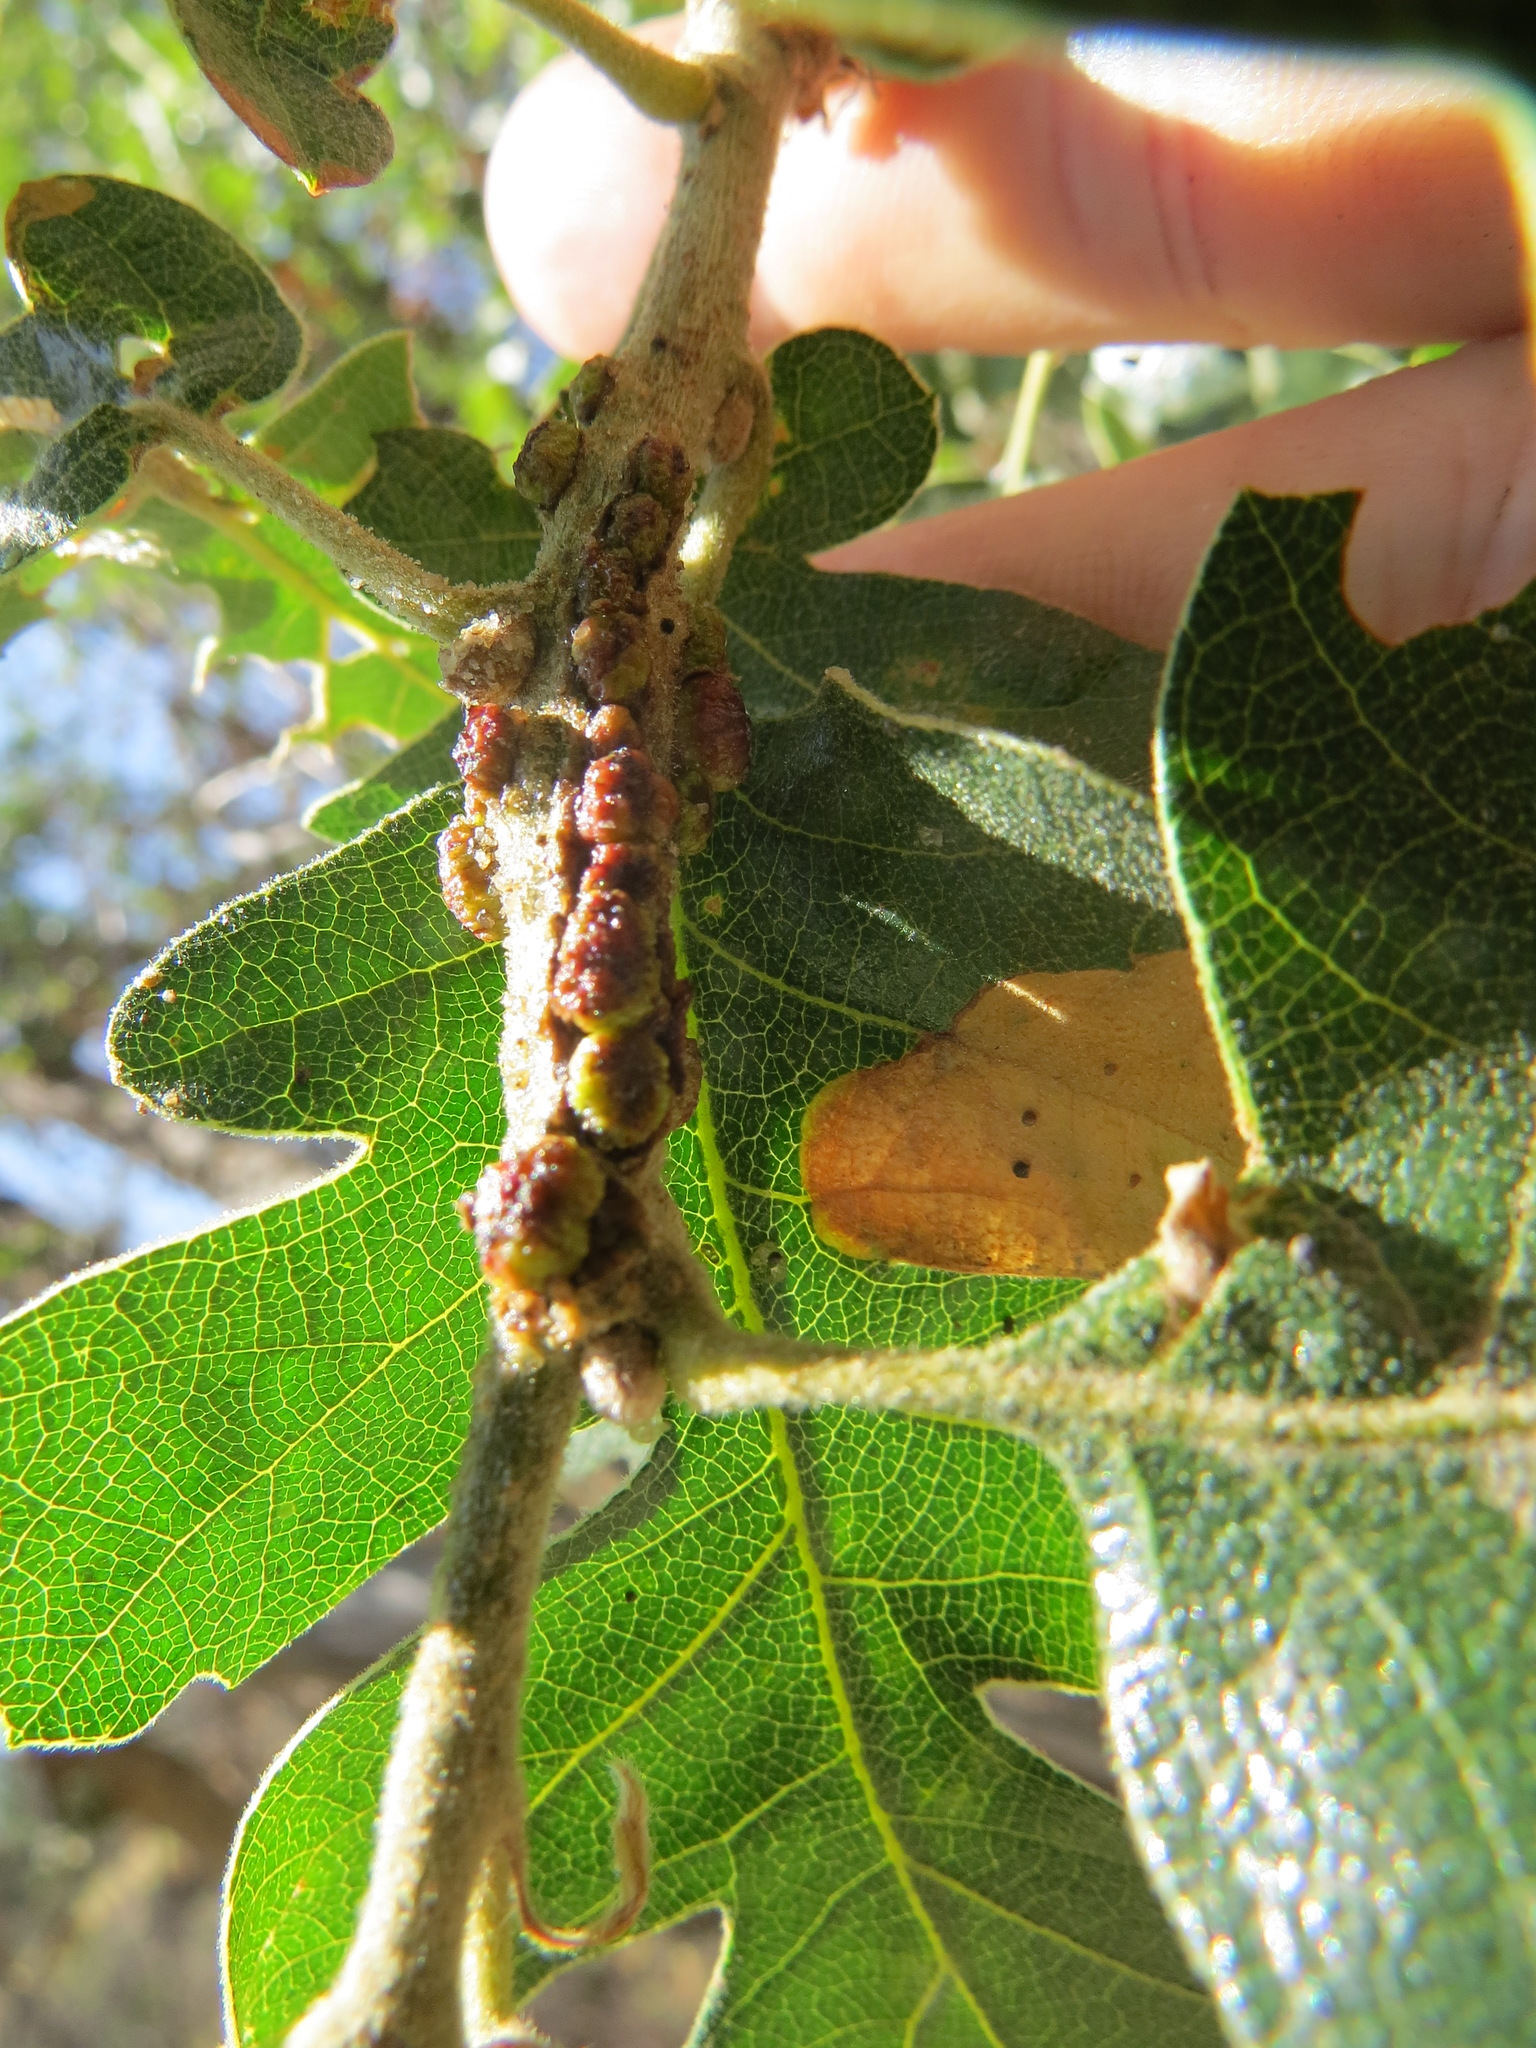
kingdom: Animalia
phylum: Arthropoda
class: Insecta
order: Hymenoptera
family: Cynipidae
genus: Disholcaspis
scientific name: Disholcaspis
